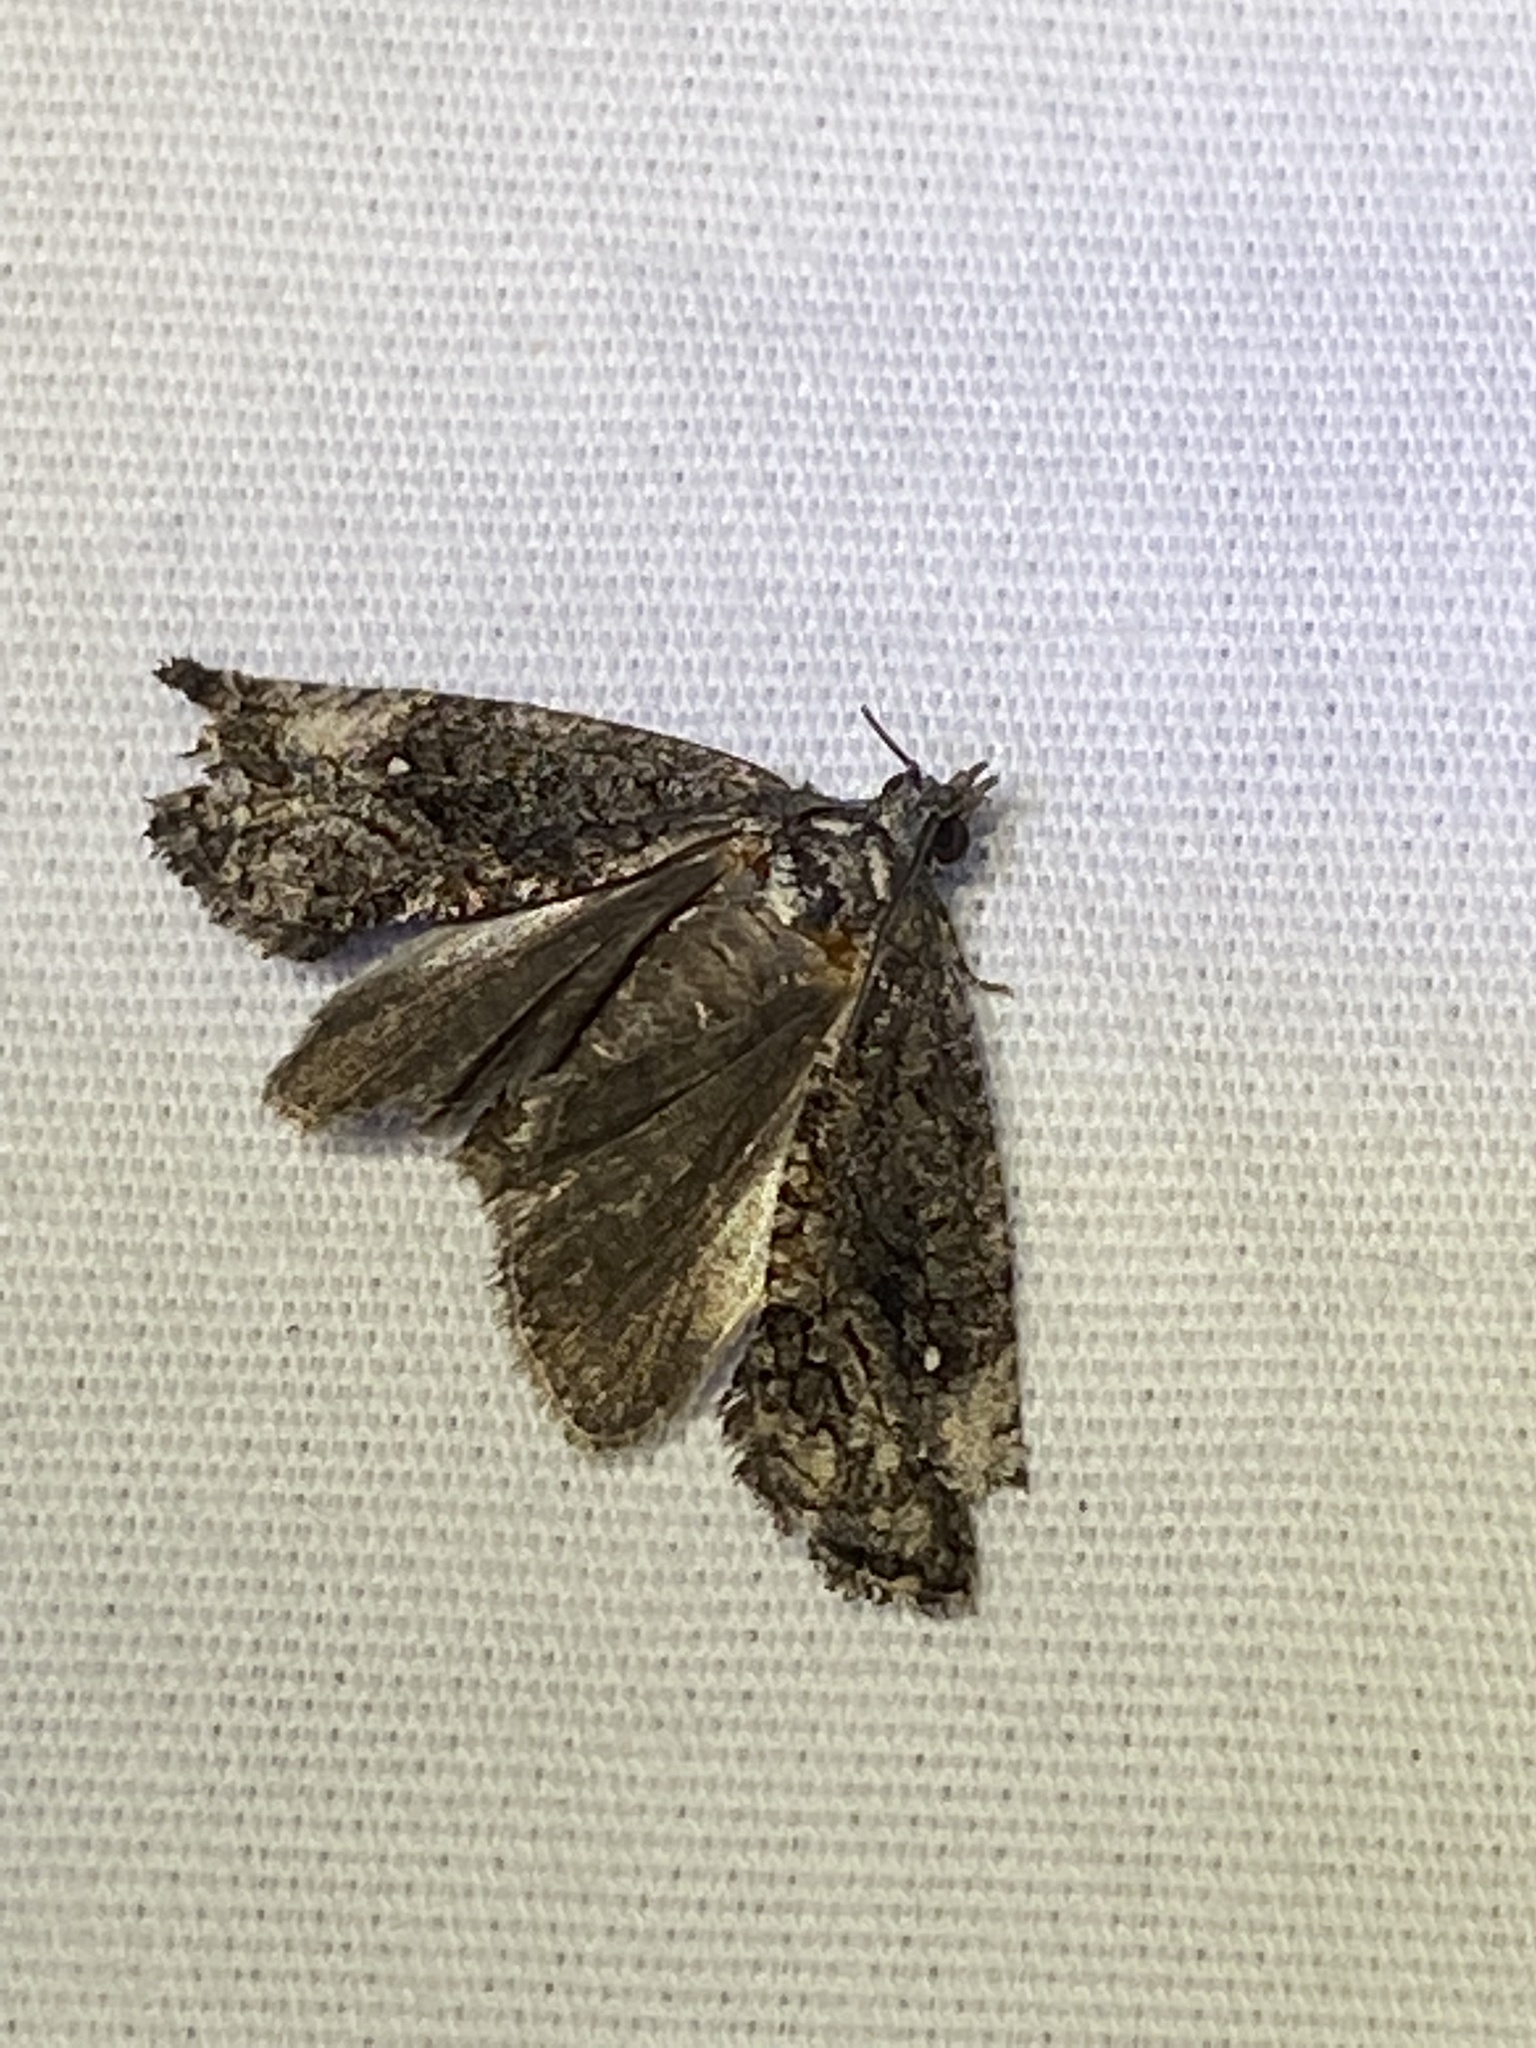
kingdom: Animalia
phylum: Arthropoda
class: Insecta
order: Lepidoptera
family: Tortricidae
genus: Gymnandrosoma
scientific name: Gymnandrosoma punctidiscanum
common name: Dotted ecdytolopha moth
